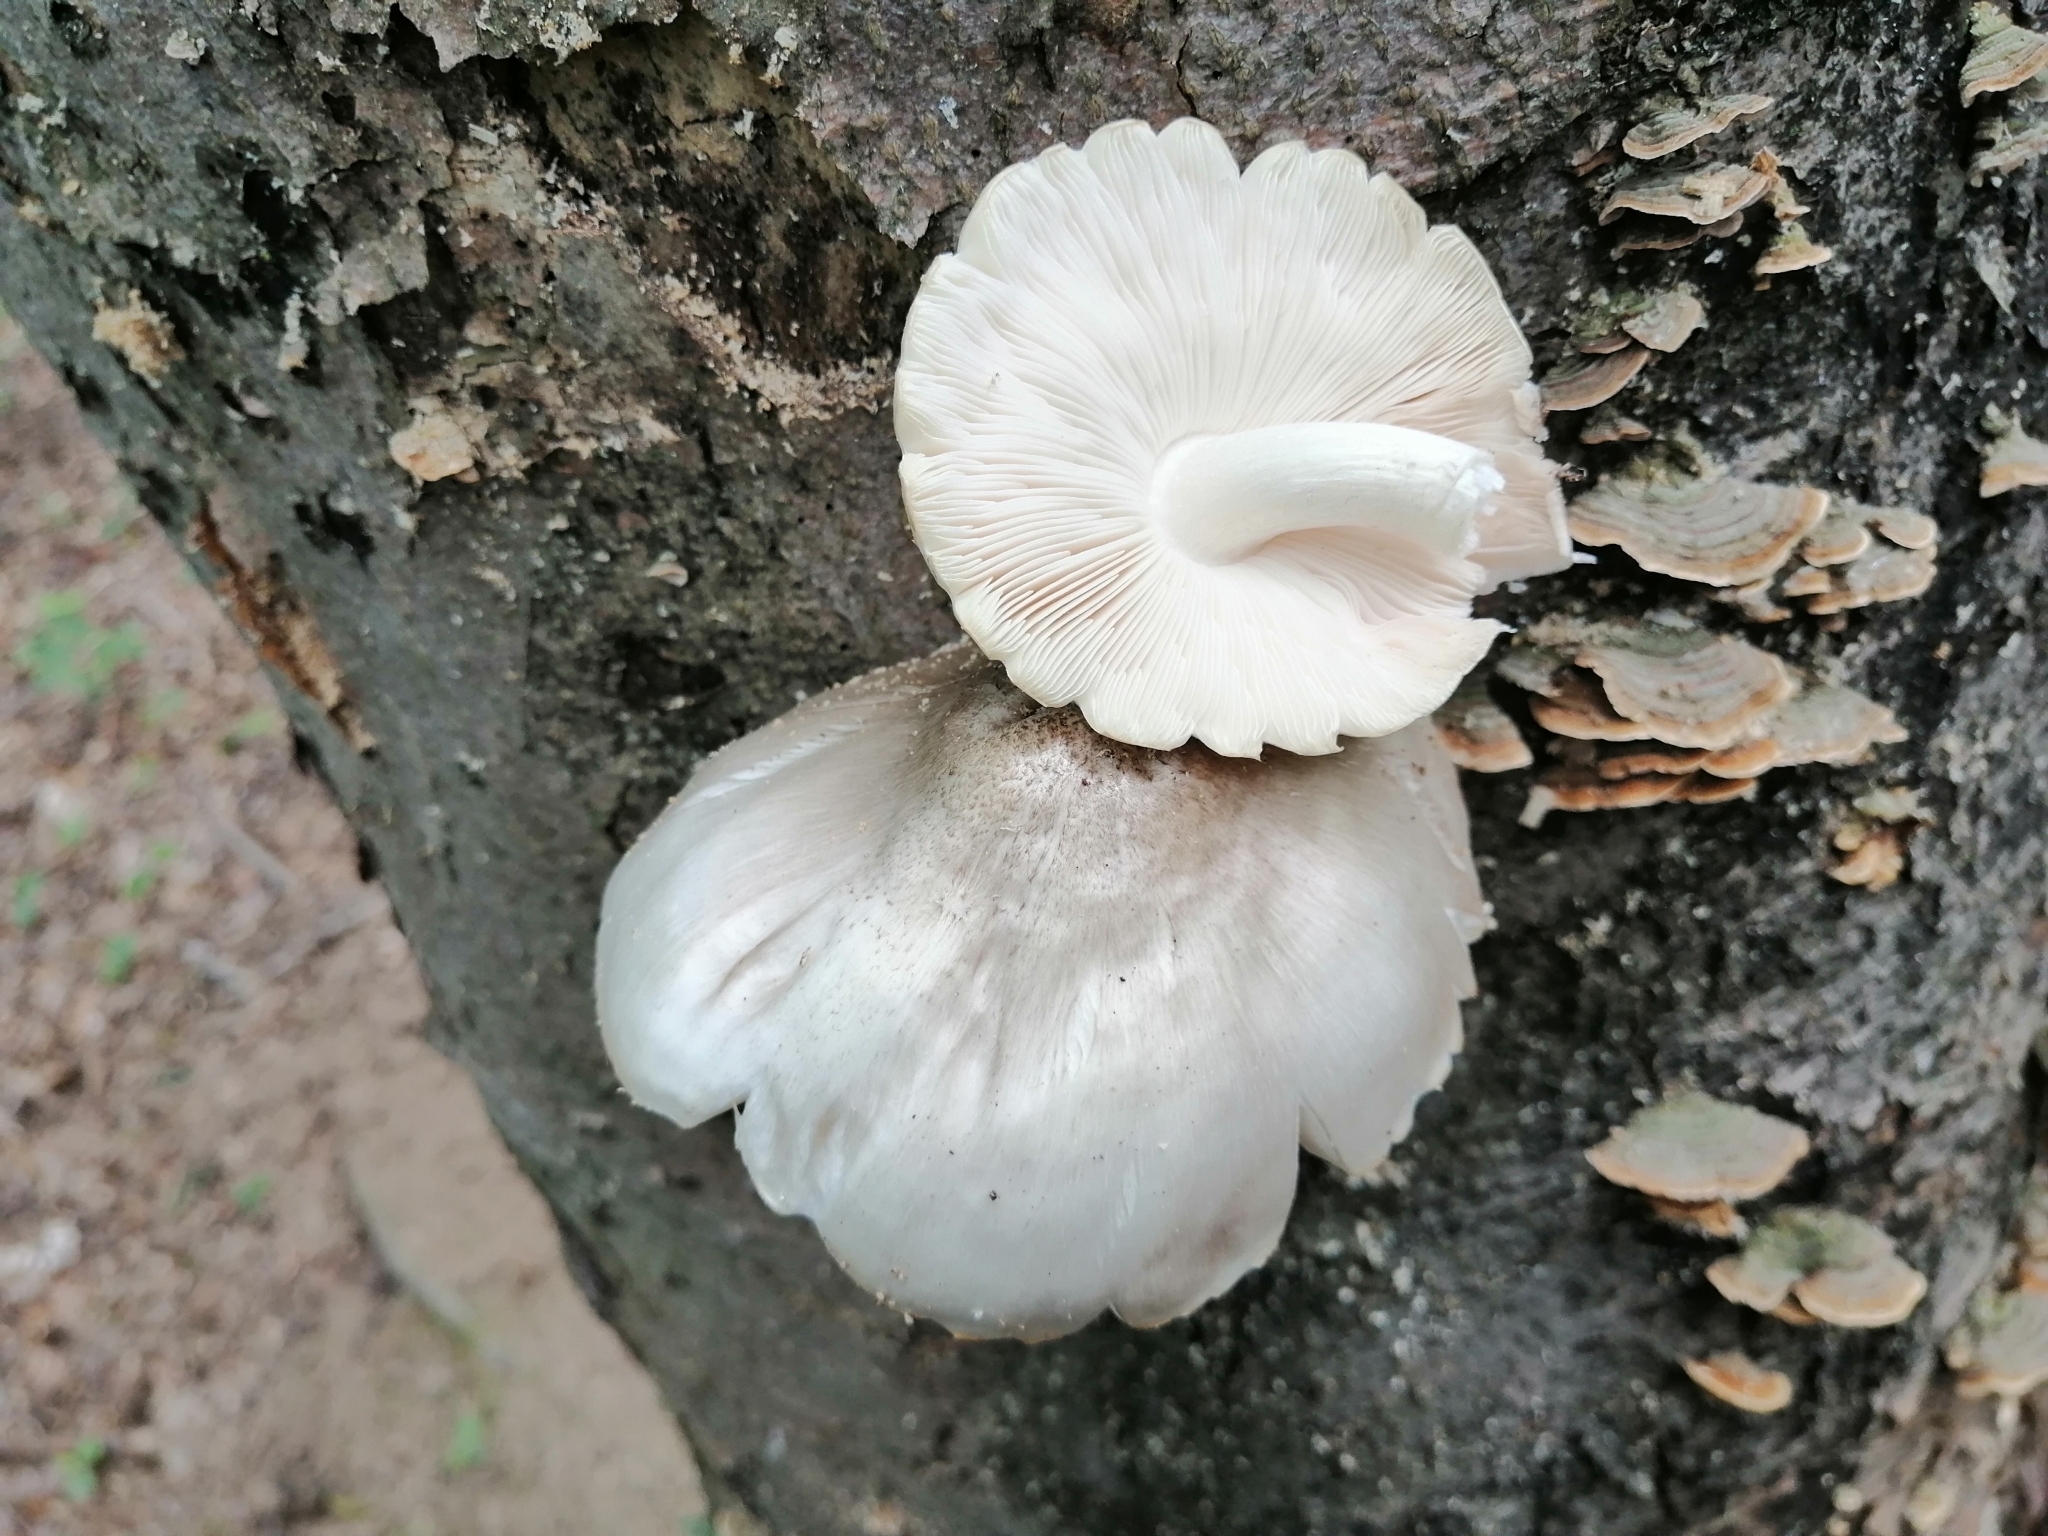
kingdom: Fungi
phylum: Basidiomycota
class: Agaricomycetes
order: Agaricales
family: Pluteaceae
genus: Pluteus
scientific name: Pluteus petasatus
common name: Scaly shield
